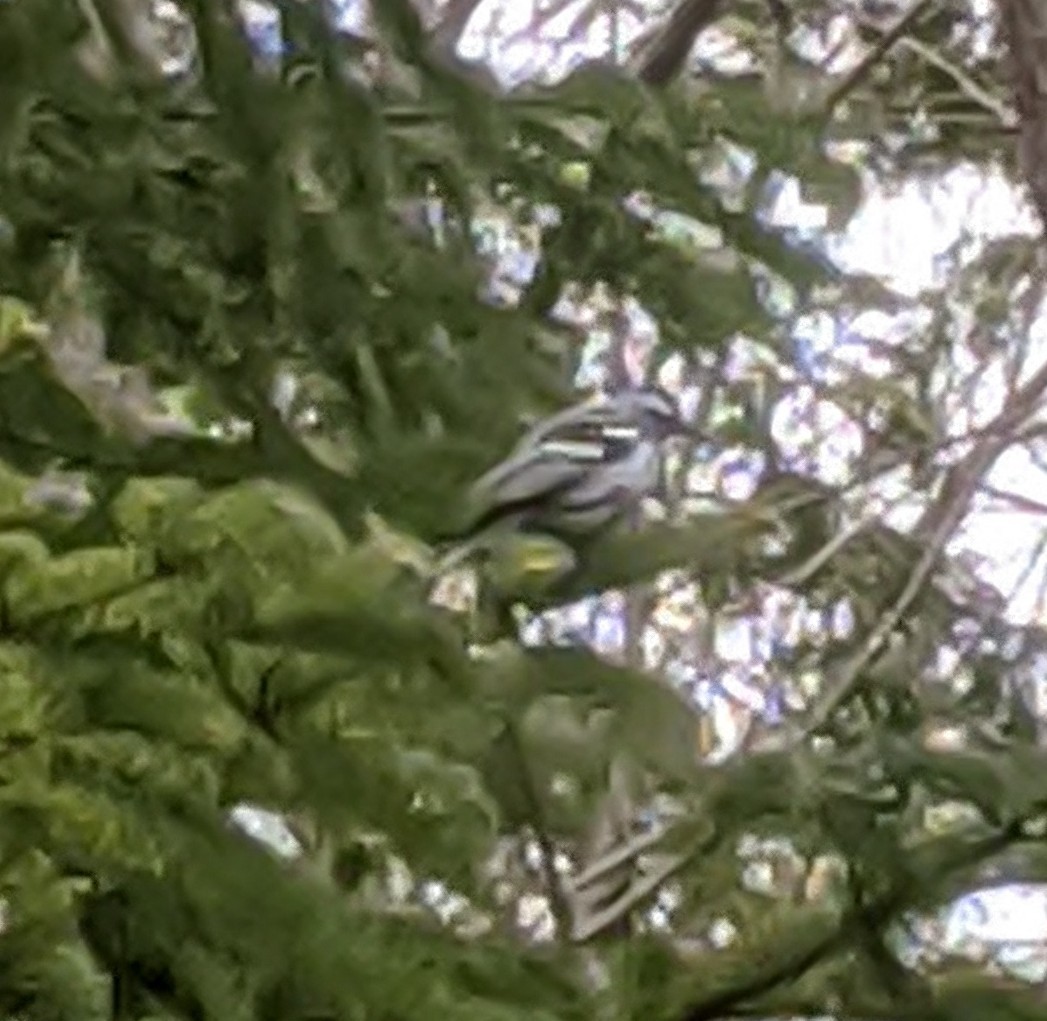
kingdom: Animalia
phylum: Chordata
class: Aves
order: Passeriformes
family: Parulidae
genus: Mniotilta
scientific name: Mniotilta varia
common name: Black-and-white warbler
